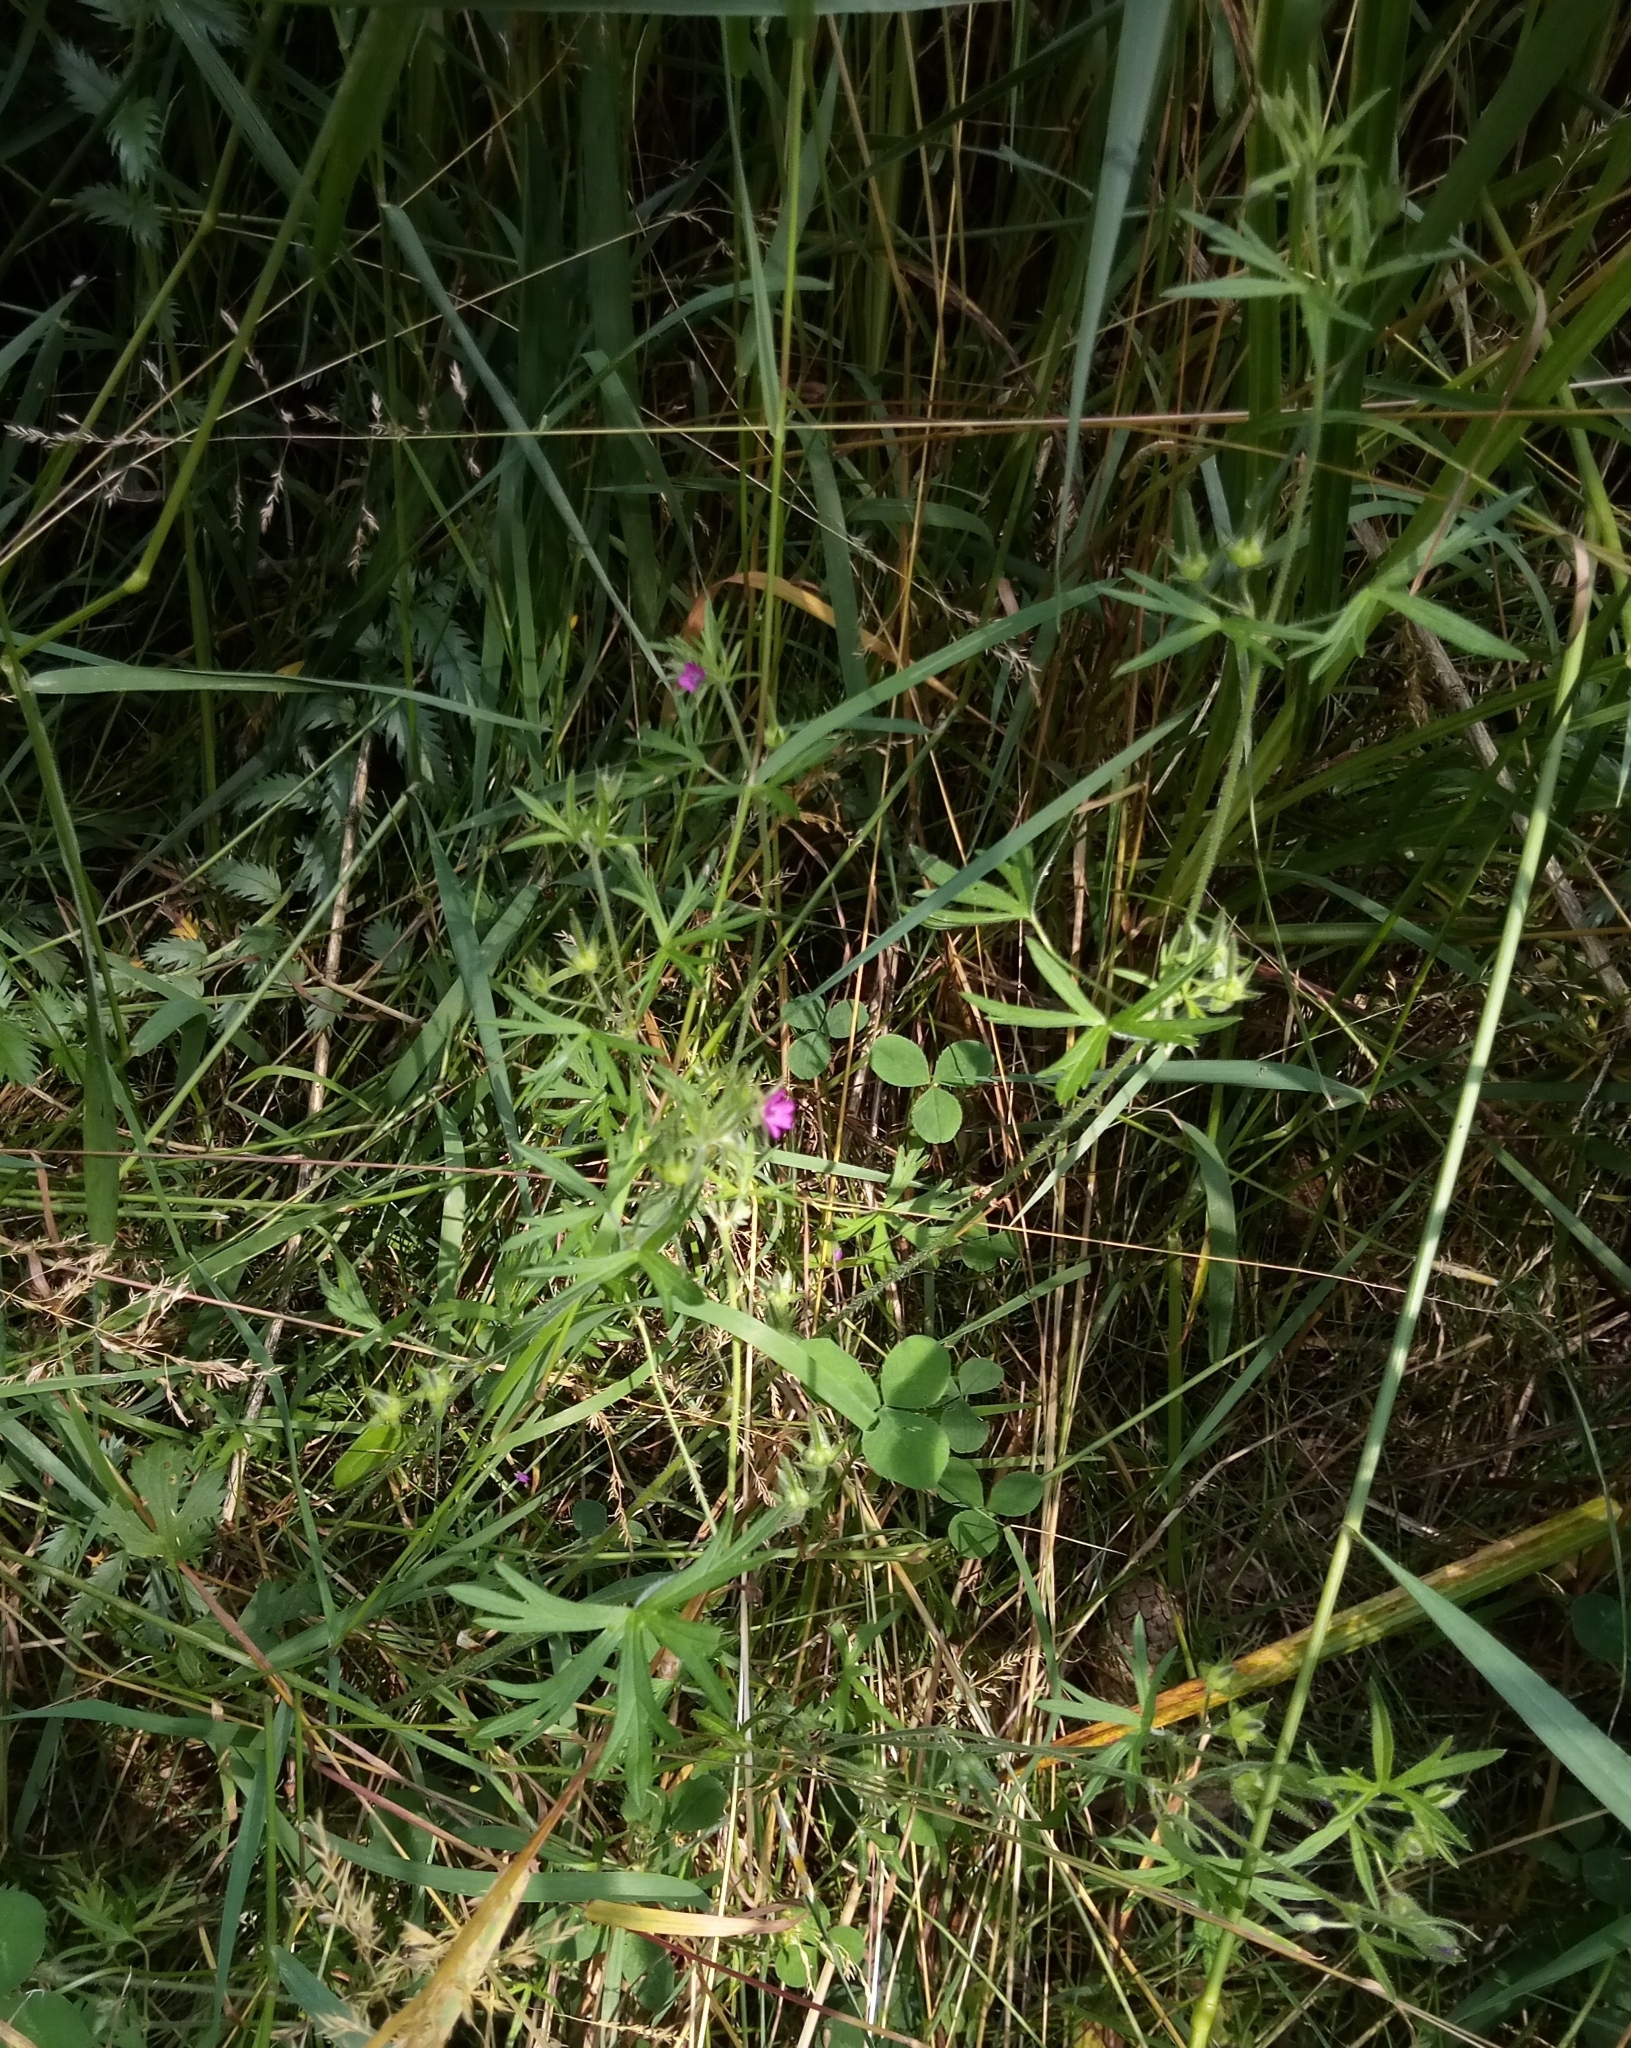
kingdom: Plantae
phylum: Tracheophyta
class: Magnoliopsida
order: Geraniales
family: Geraniaceae
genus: Geranium
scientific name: Geranium dissectum
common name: Cut-leaved crane's-bill
